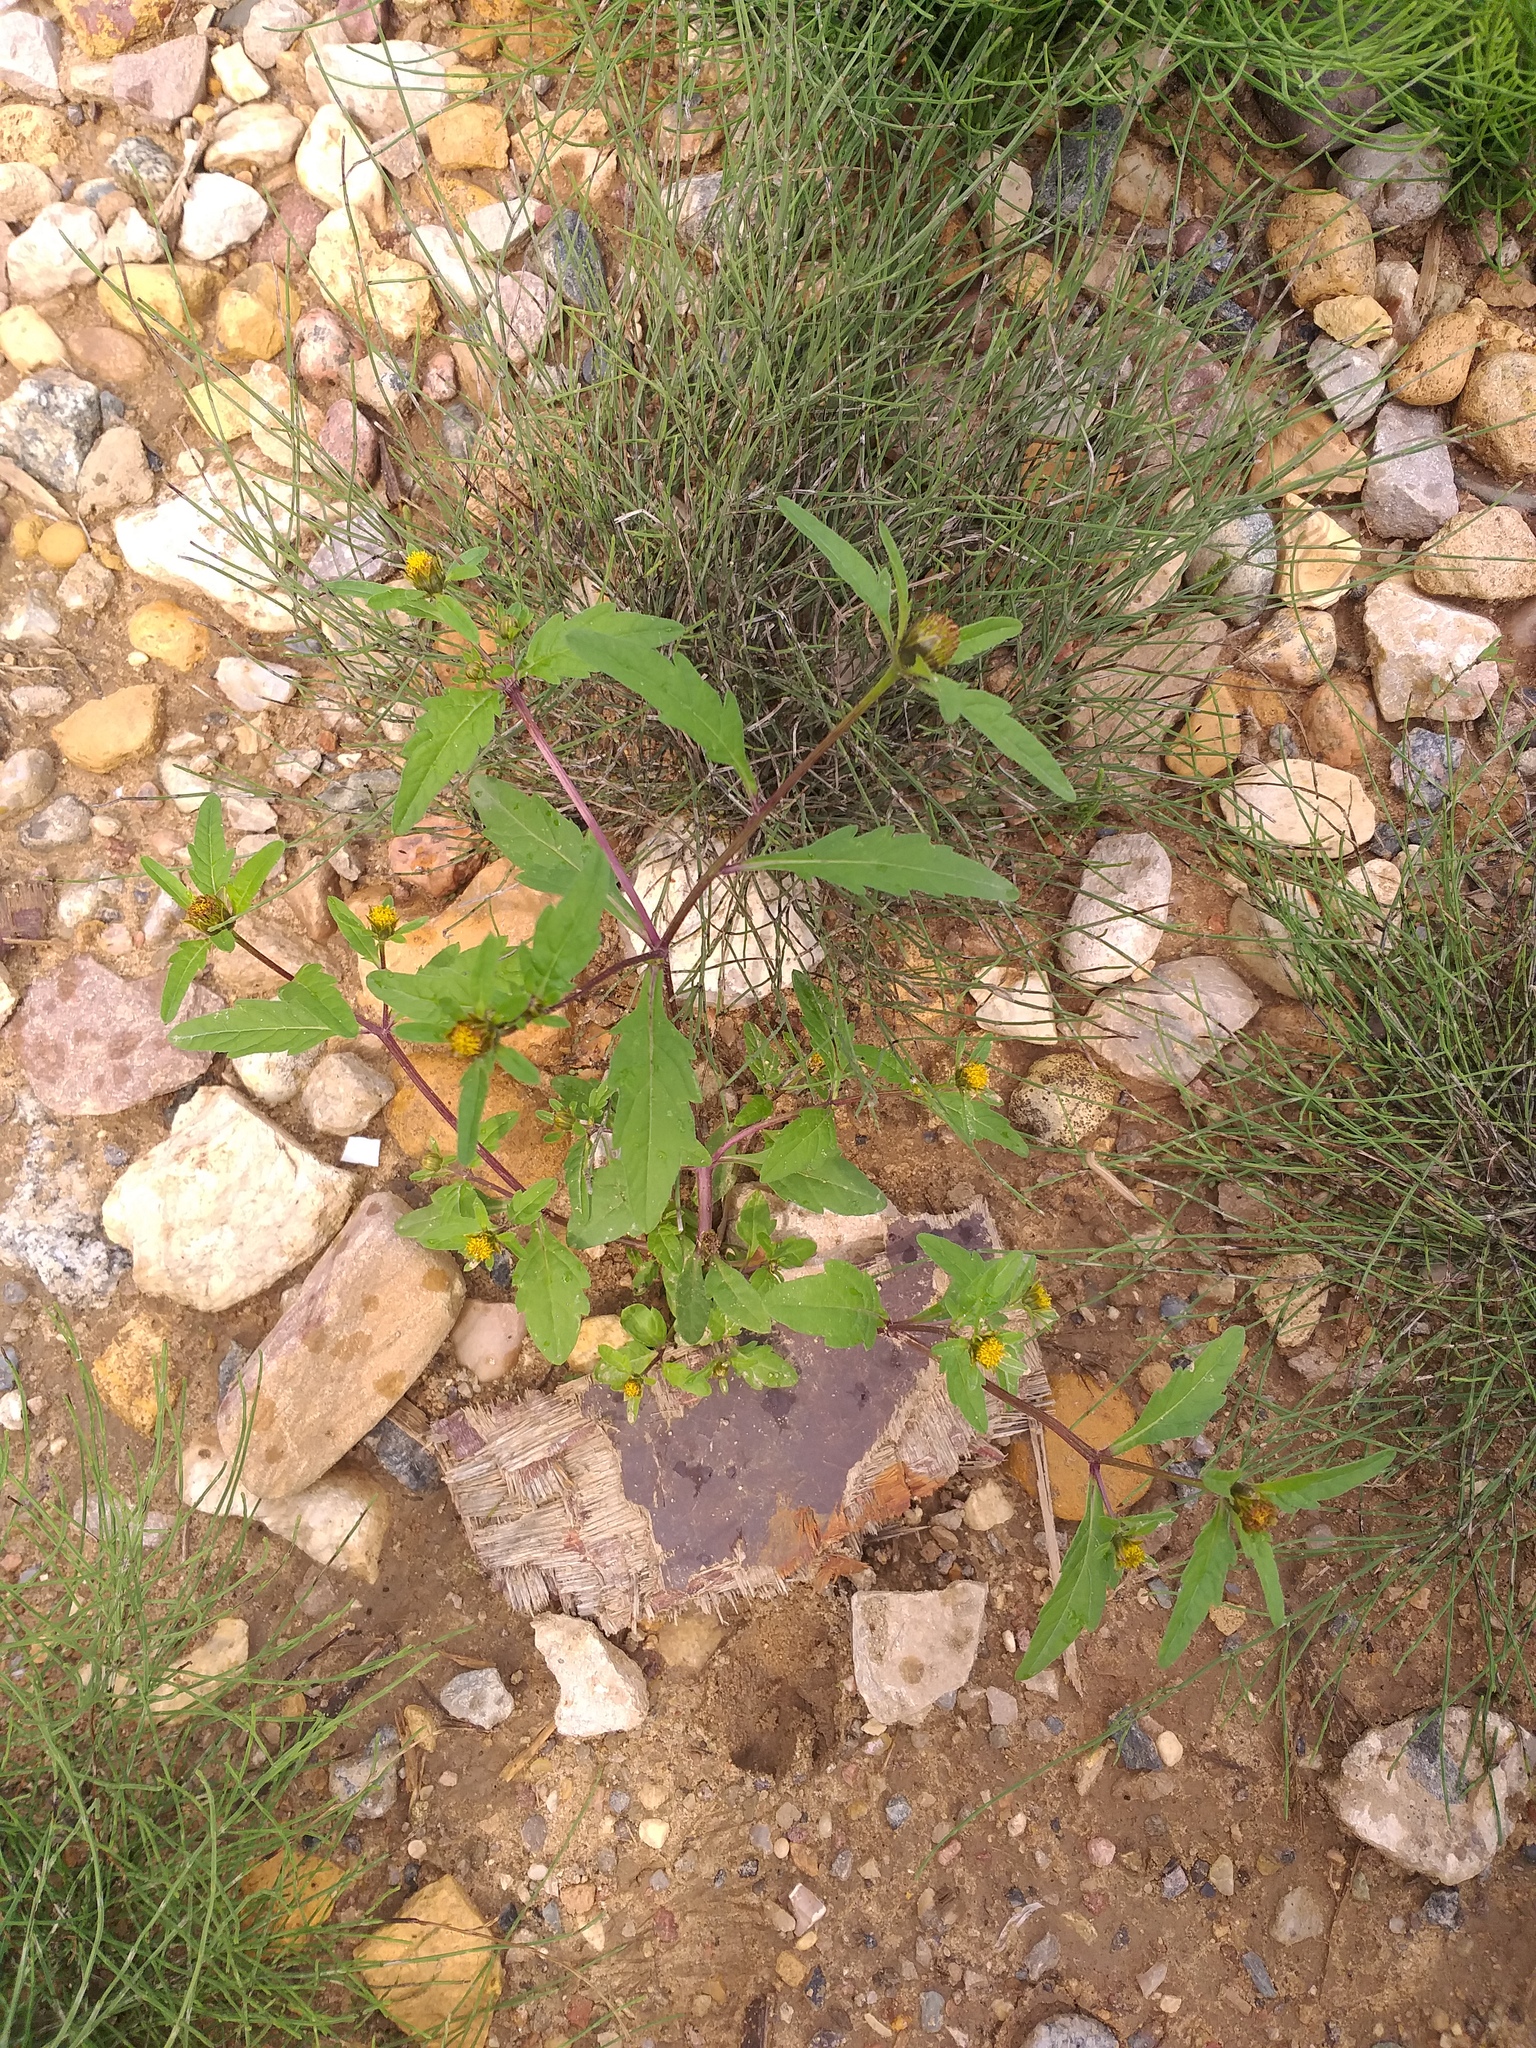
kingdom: Plantae
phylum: Tracheophyta
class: Magnoliopsida
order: Asterales
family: Asteraceae
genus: Bidens
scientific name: Bidens tripartita
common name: Trifid bur-marigold
